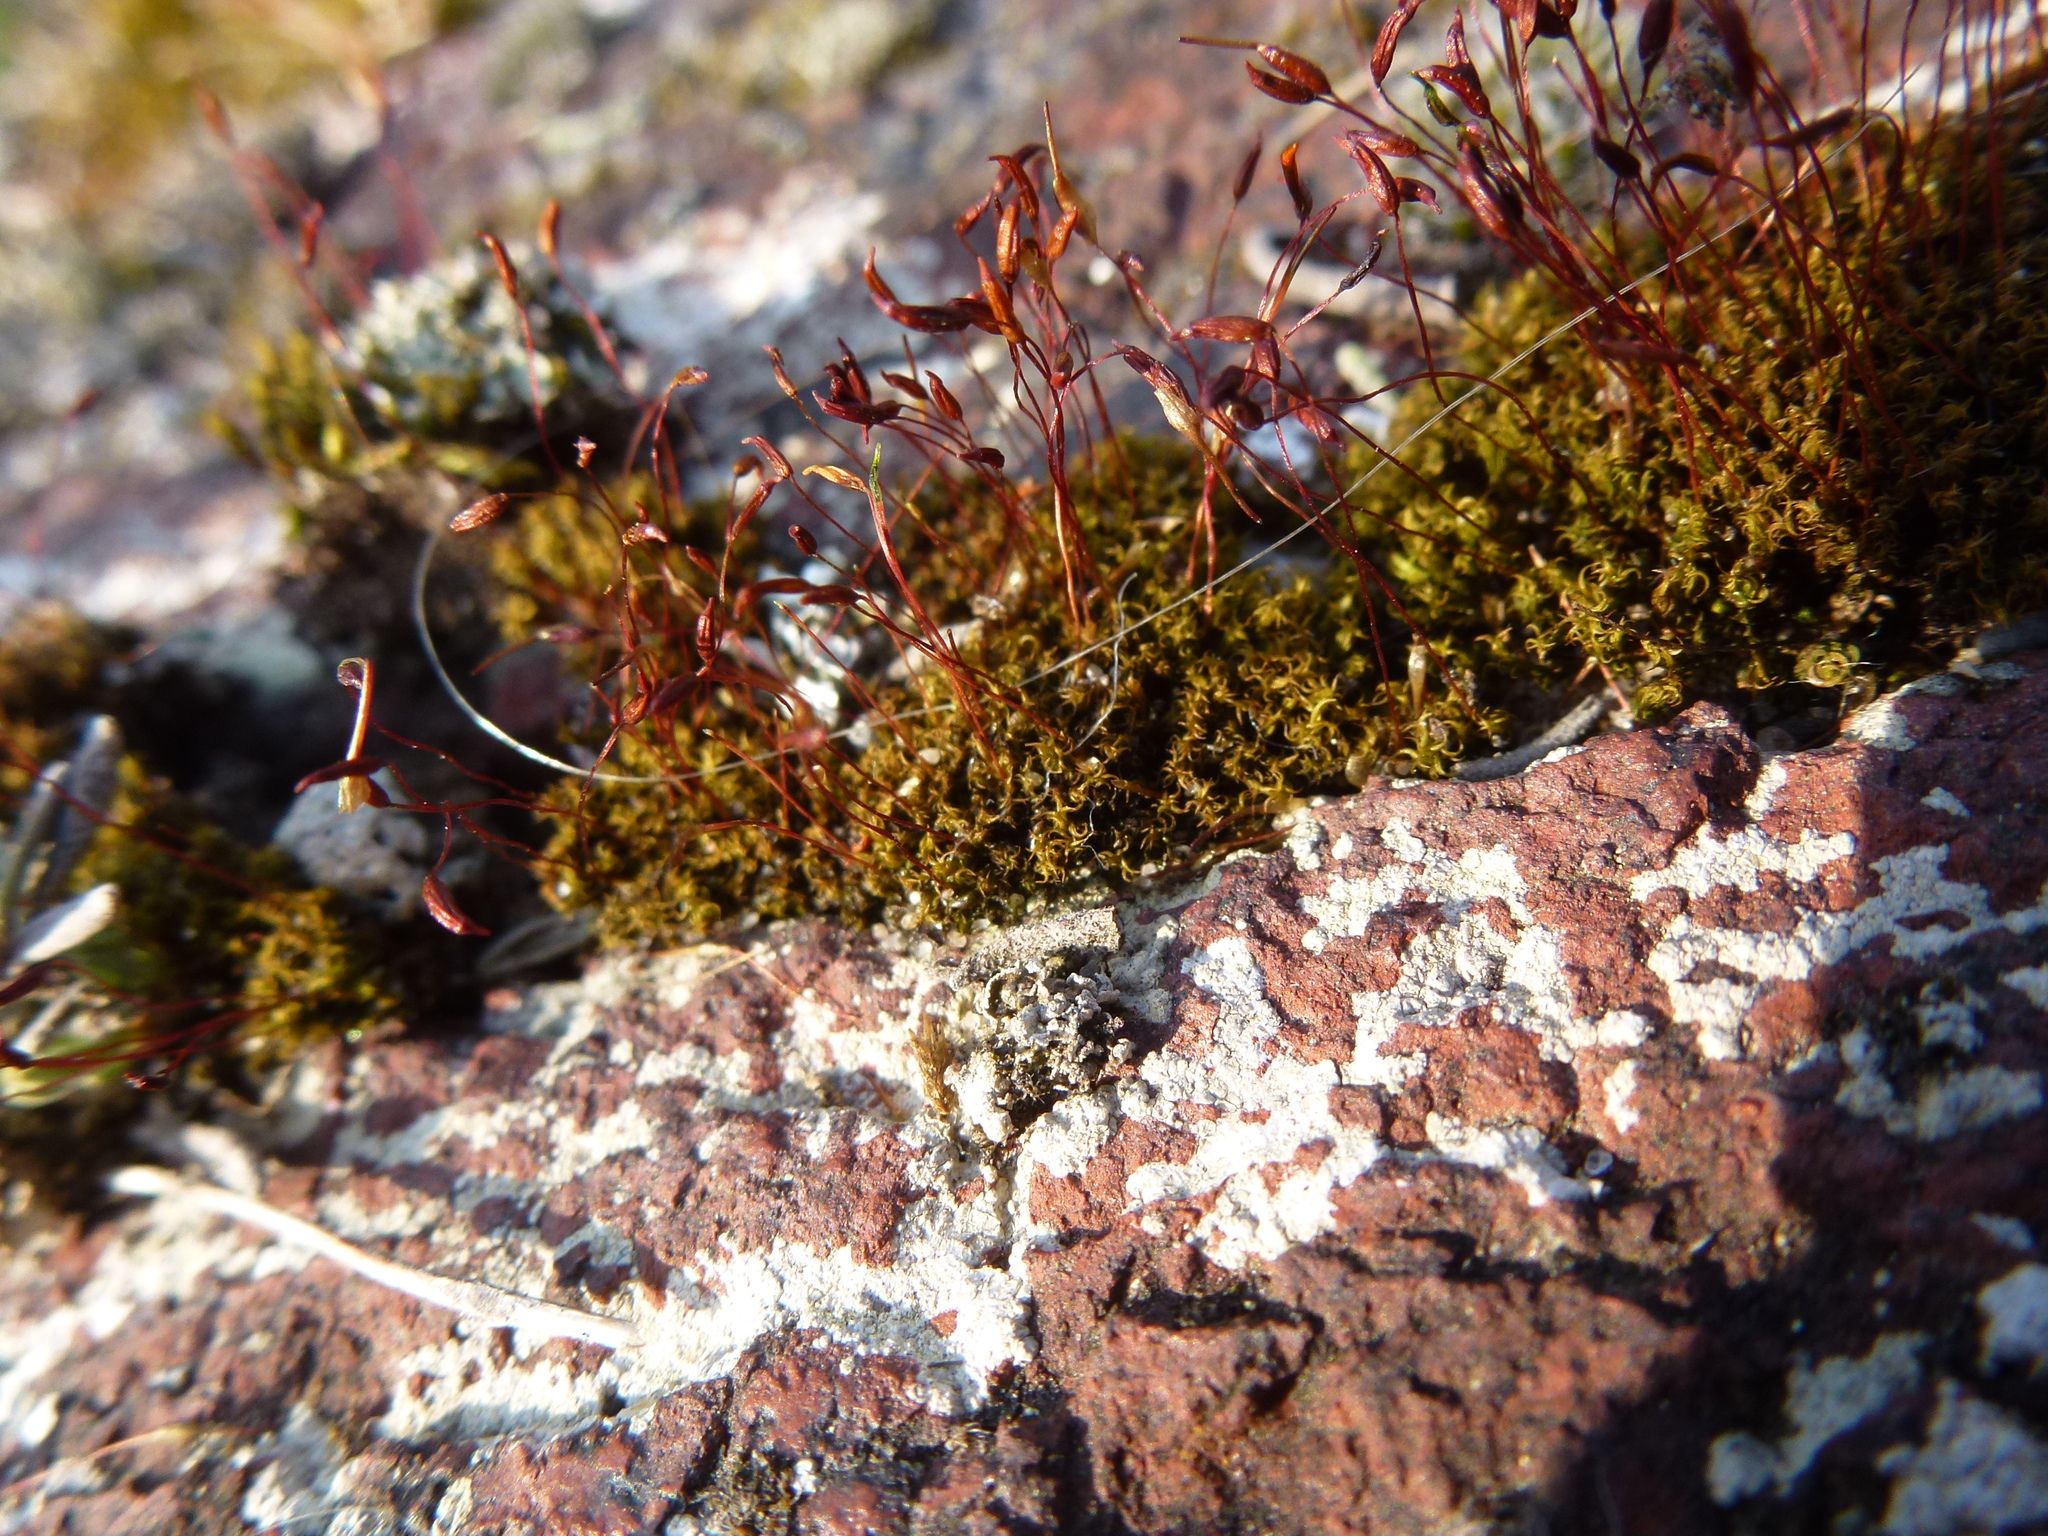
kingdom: Plantae
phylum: Bryophyta
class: Bryopsida
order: Pottiales
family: Pottiaceae
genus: Tortula
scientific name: Tortula muralis
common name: Wall screw-moss
